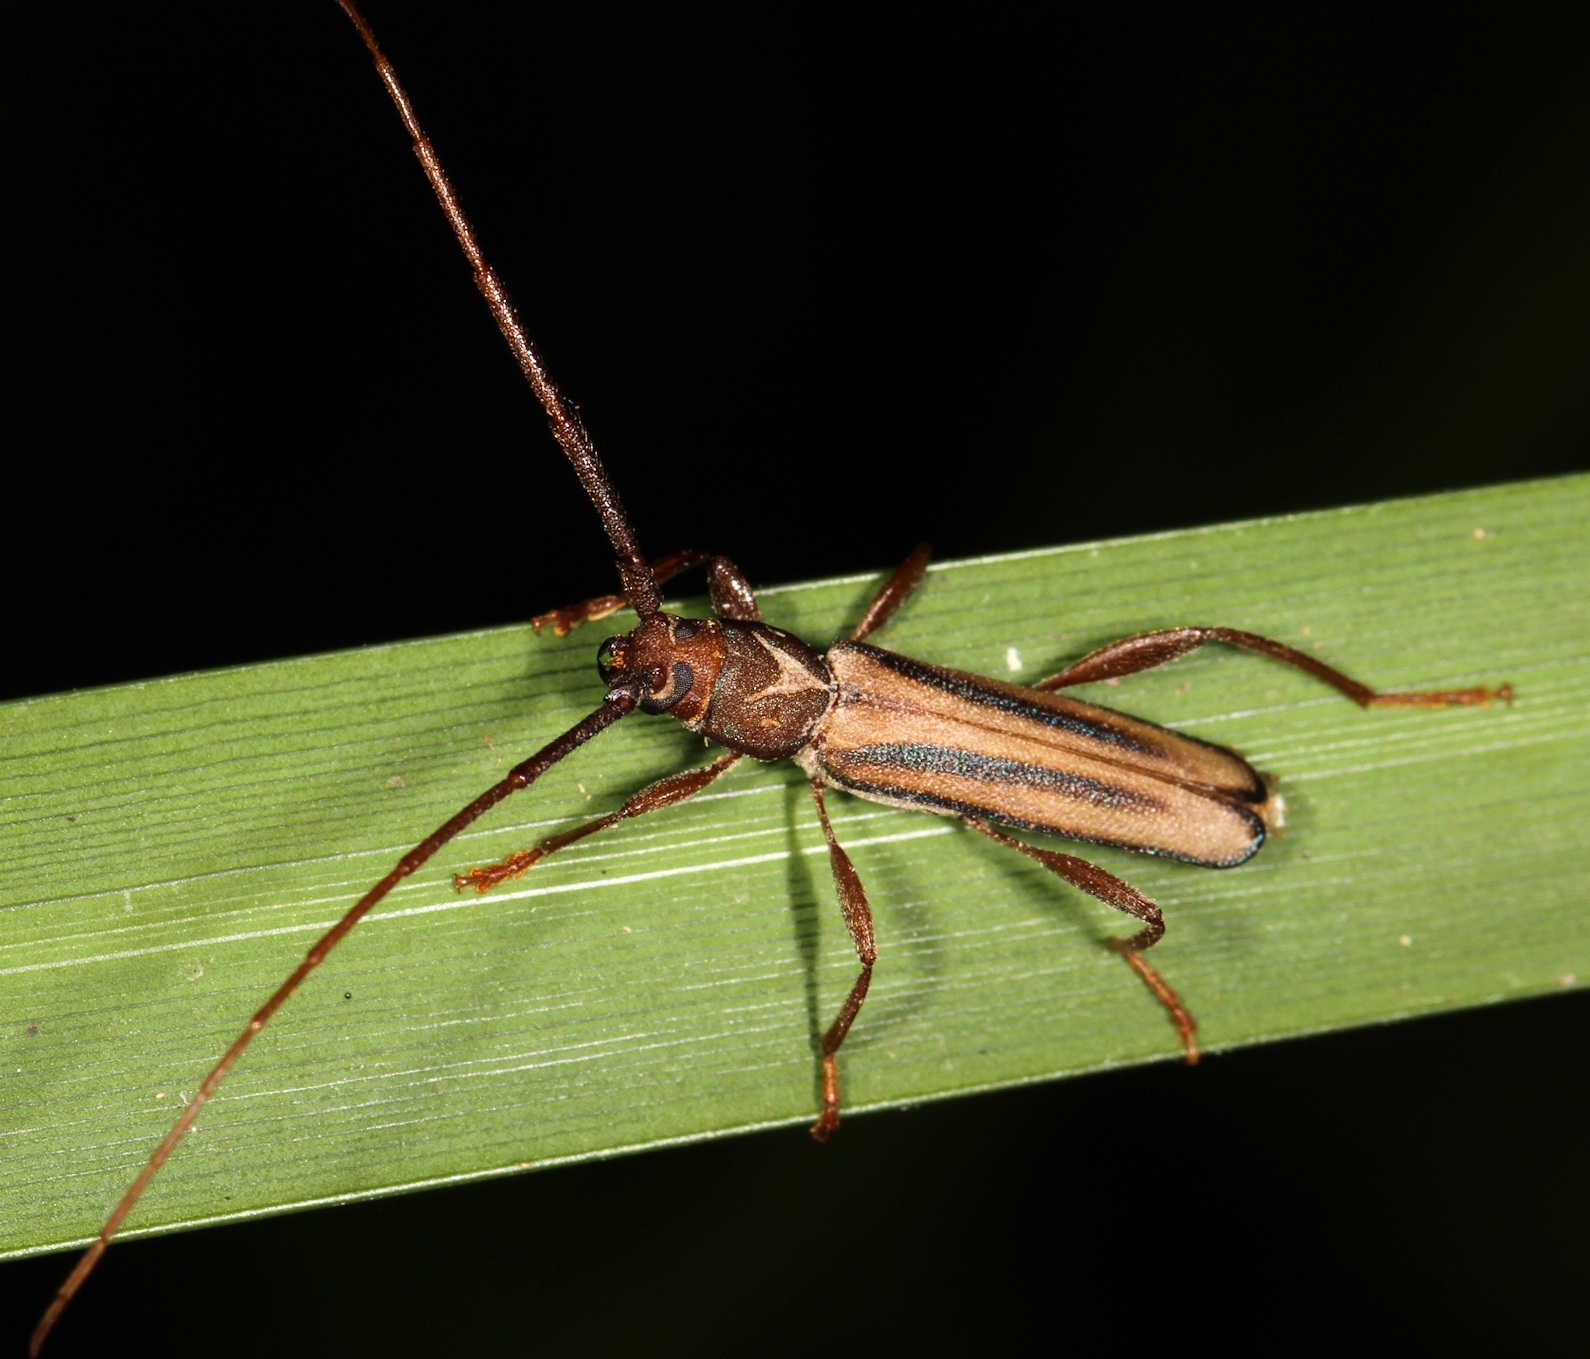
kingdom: Animalia
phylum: Arthropoda
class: Insecta
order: Coleoptera
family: Cerambycidae
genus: Xystrocera
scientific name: Xystrocera dispar
